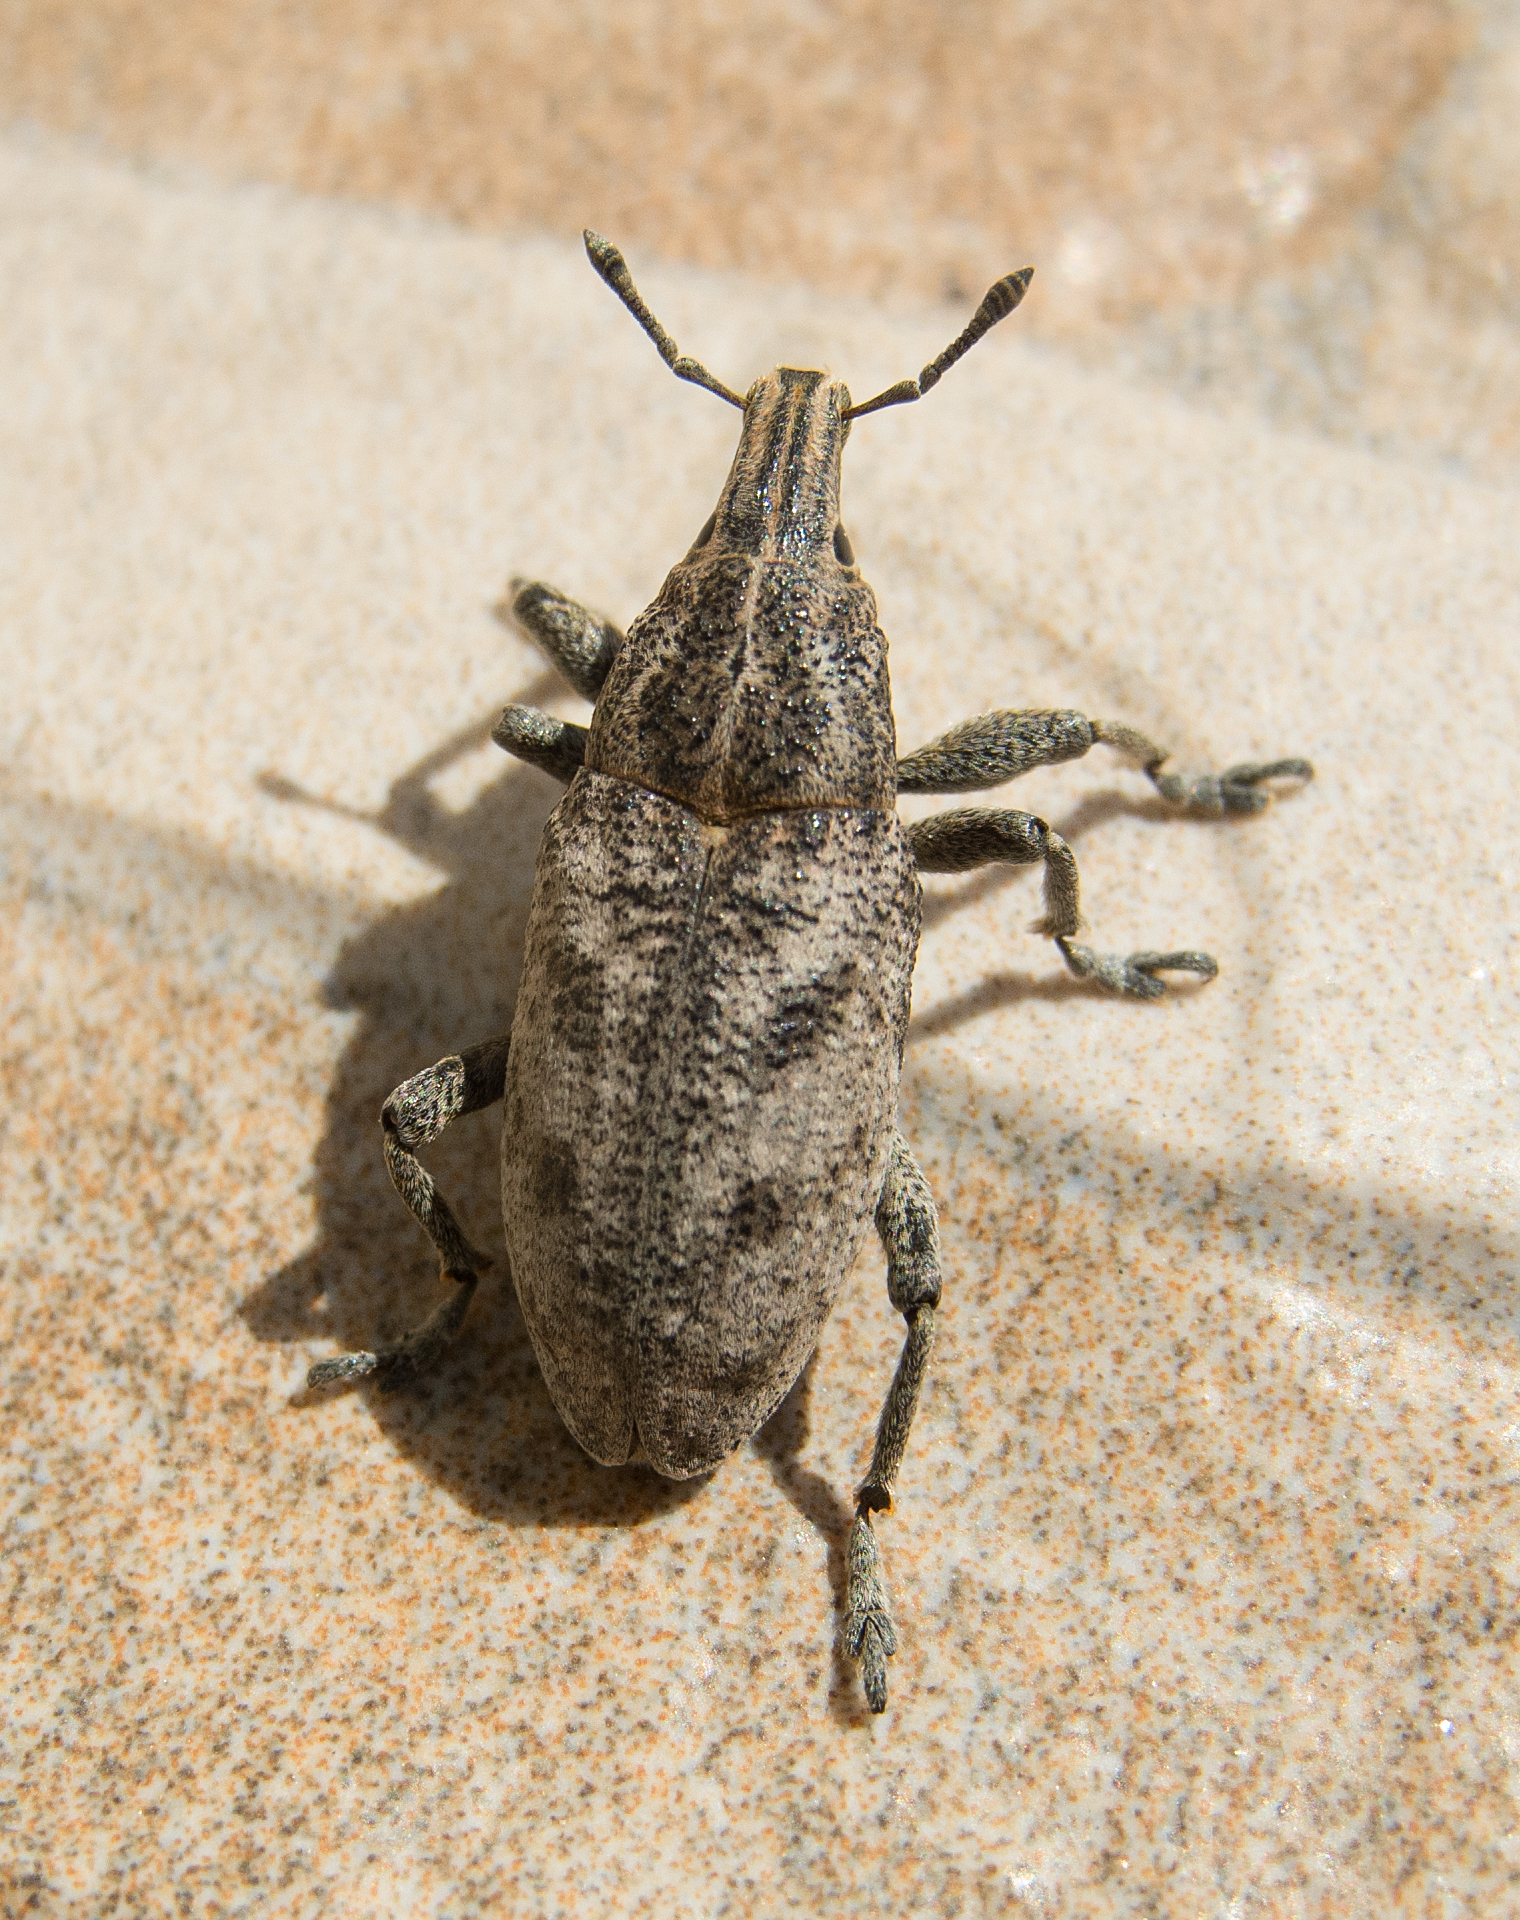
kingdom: Animalia
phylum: Arthropoda
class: Insecta
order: Coleoptera
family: Curculionidae
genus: Cleonis
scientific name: Cleonis pigra
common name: Large thistle weevil
